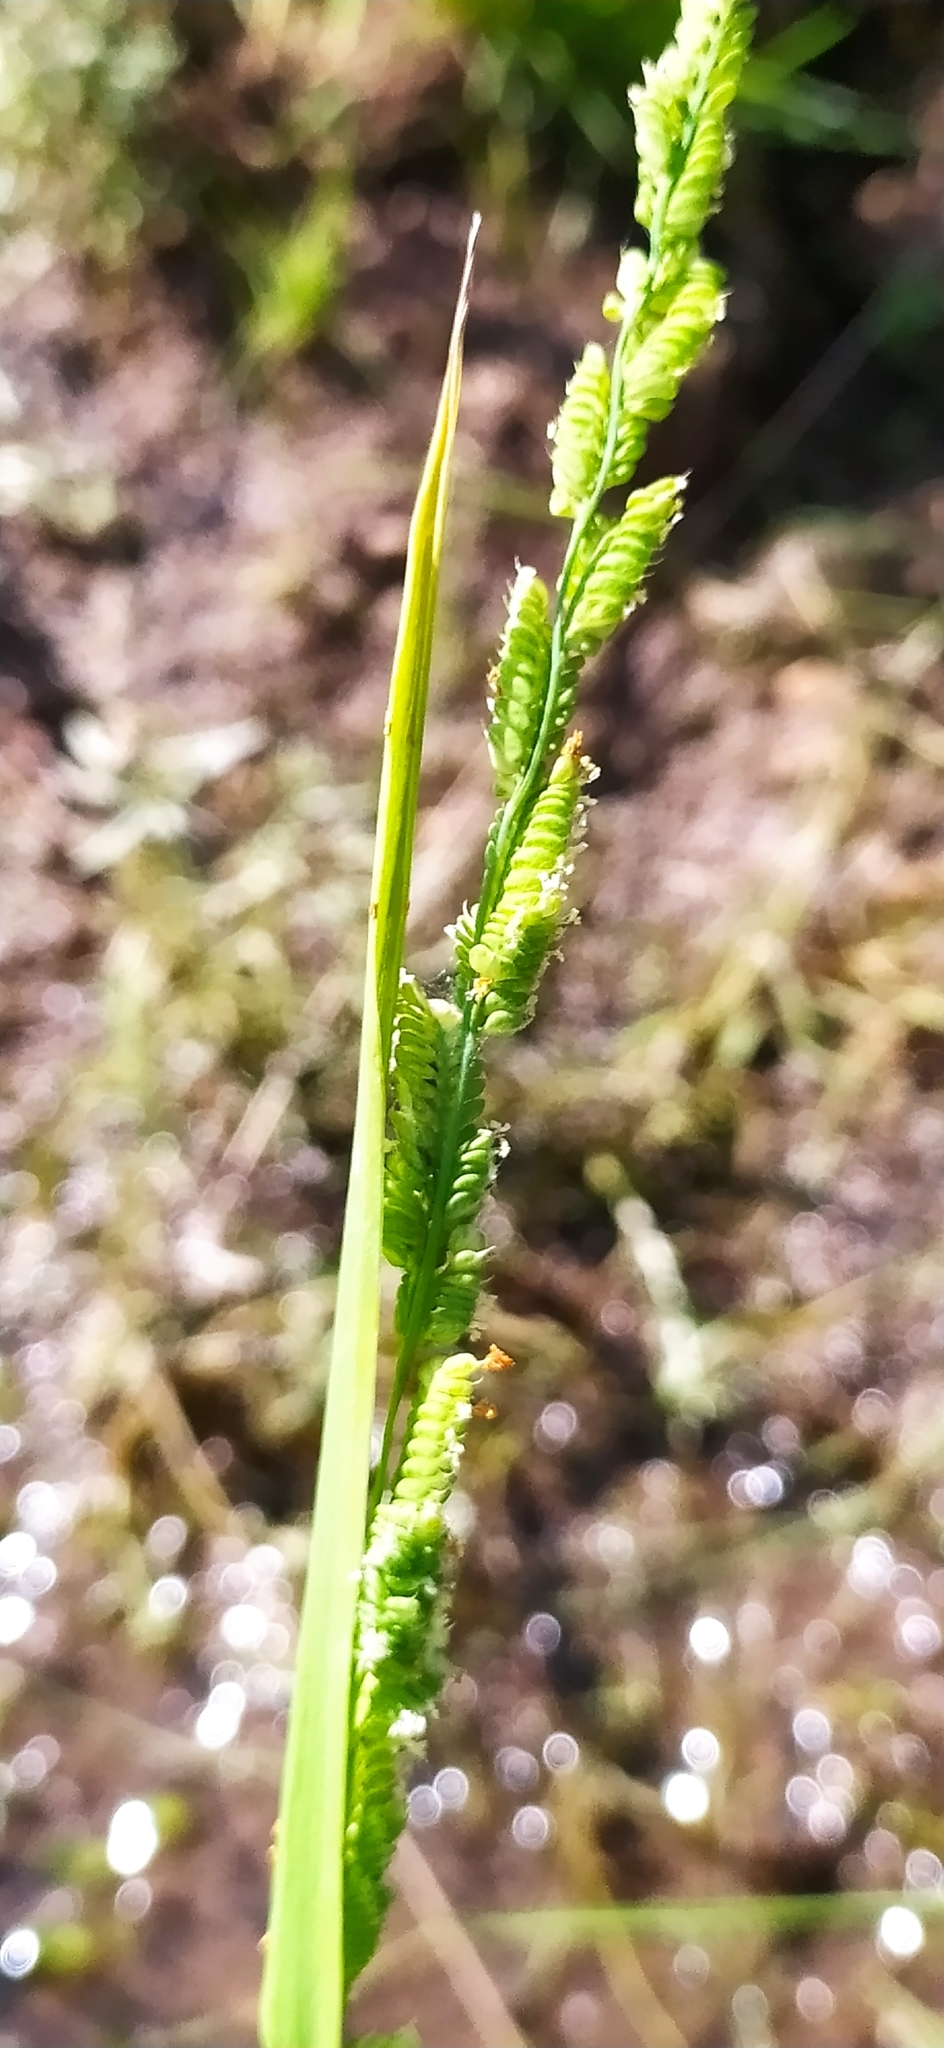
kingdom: Plantae
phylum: Tracheophyta
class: Liliopsida
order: Poales
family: Poaceae
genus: Beckmannia
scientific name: Beckmannia syzigachne
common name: American slough-grass
